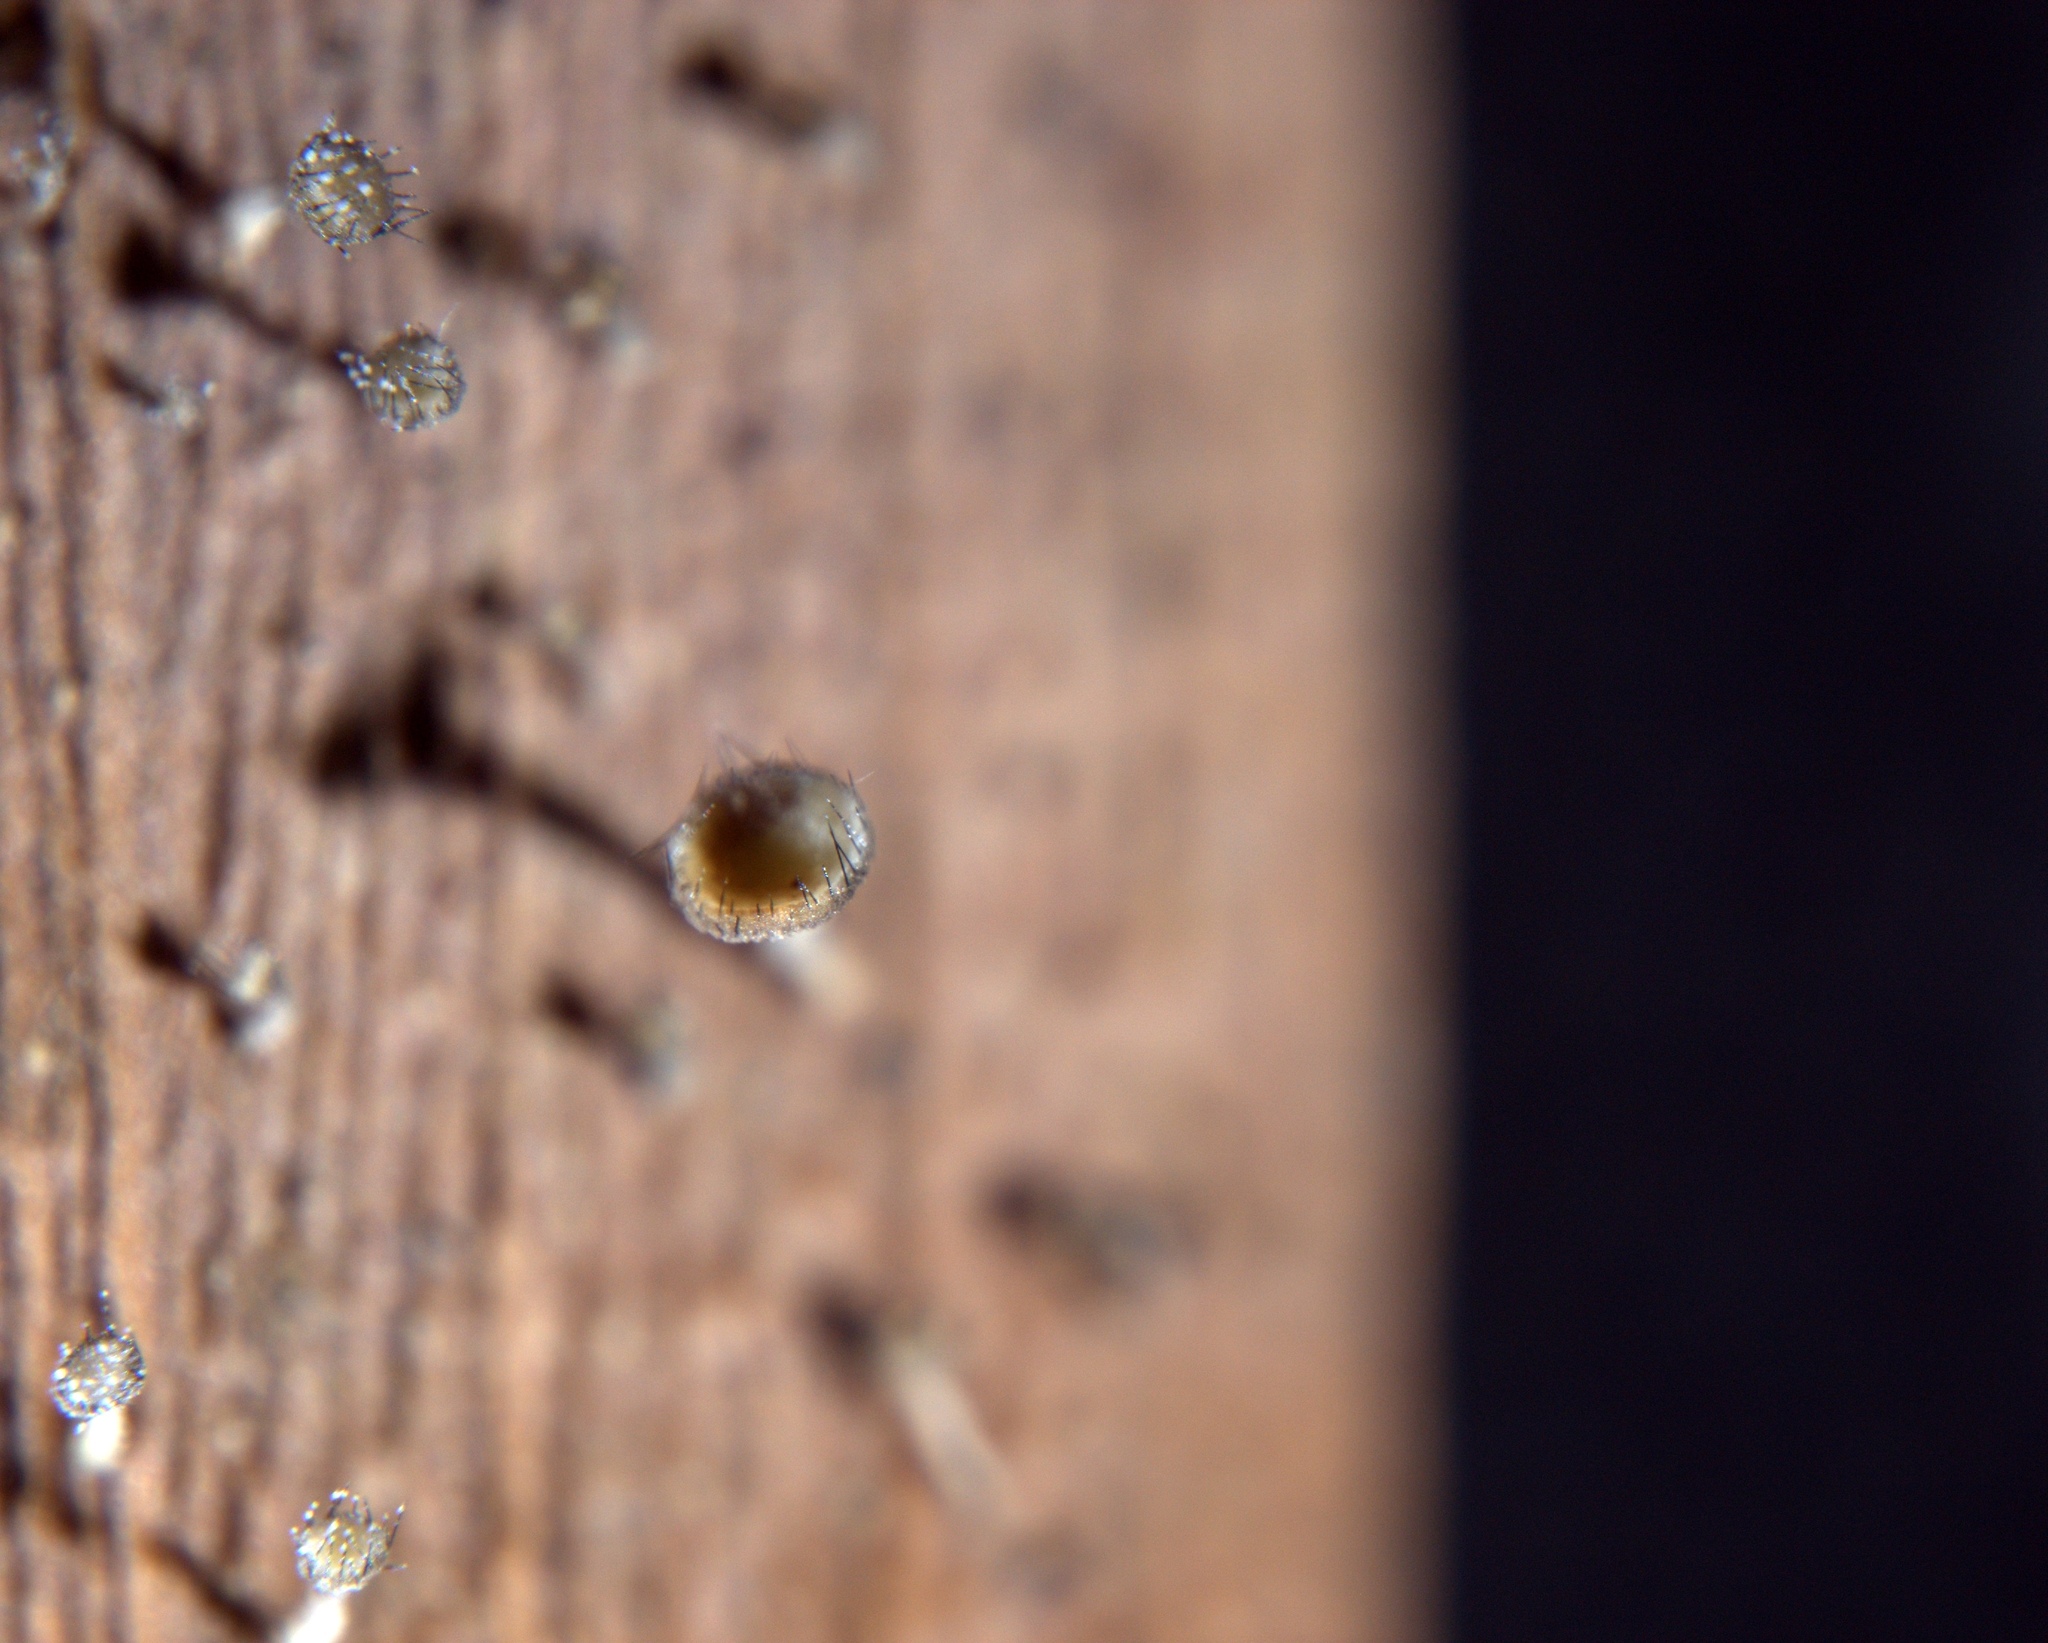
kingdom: Fungi
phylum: Ascomycota
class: Leotiomycetes
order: Helotiales
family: Helotiaceae
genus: Hymenotorrendiella
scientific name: Hymenotorrendiella eucalypti
